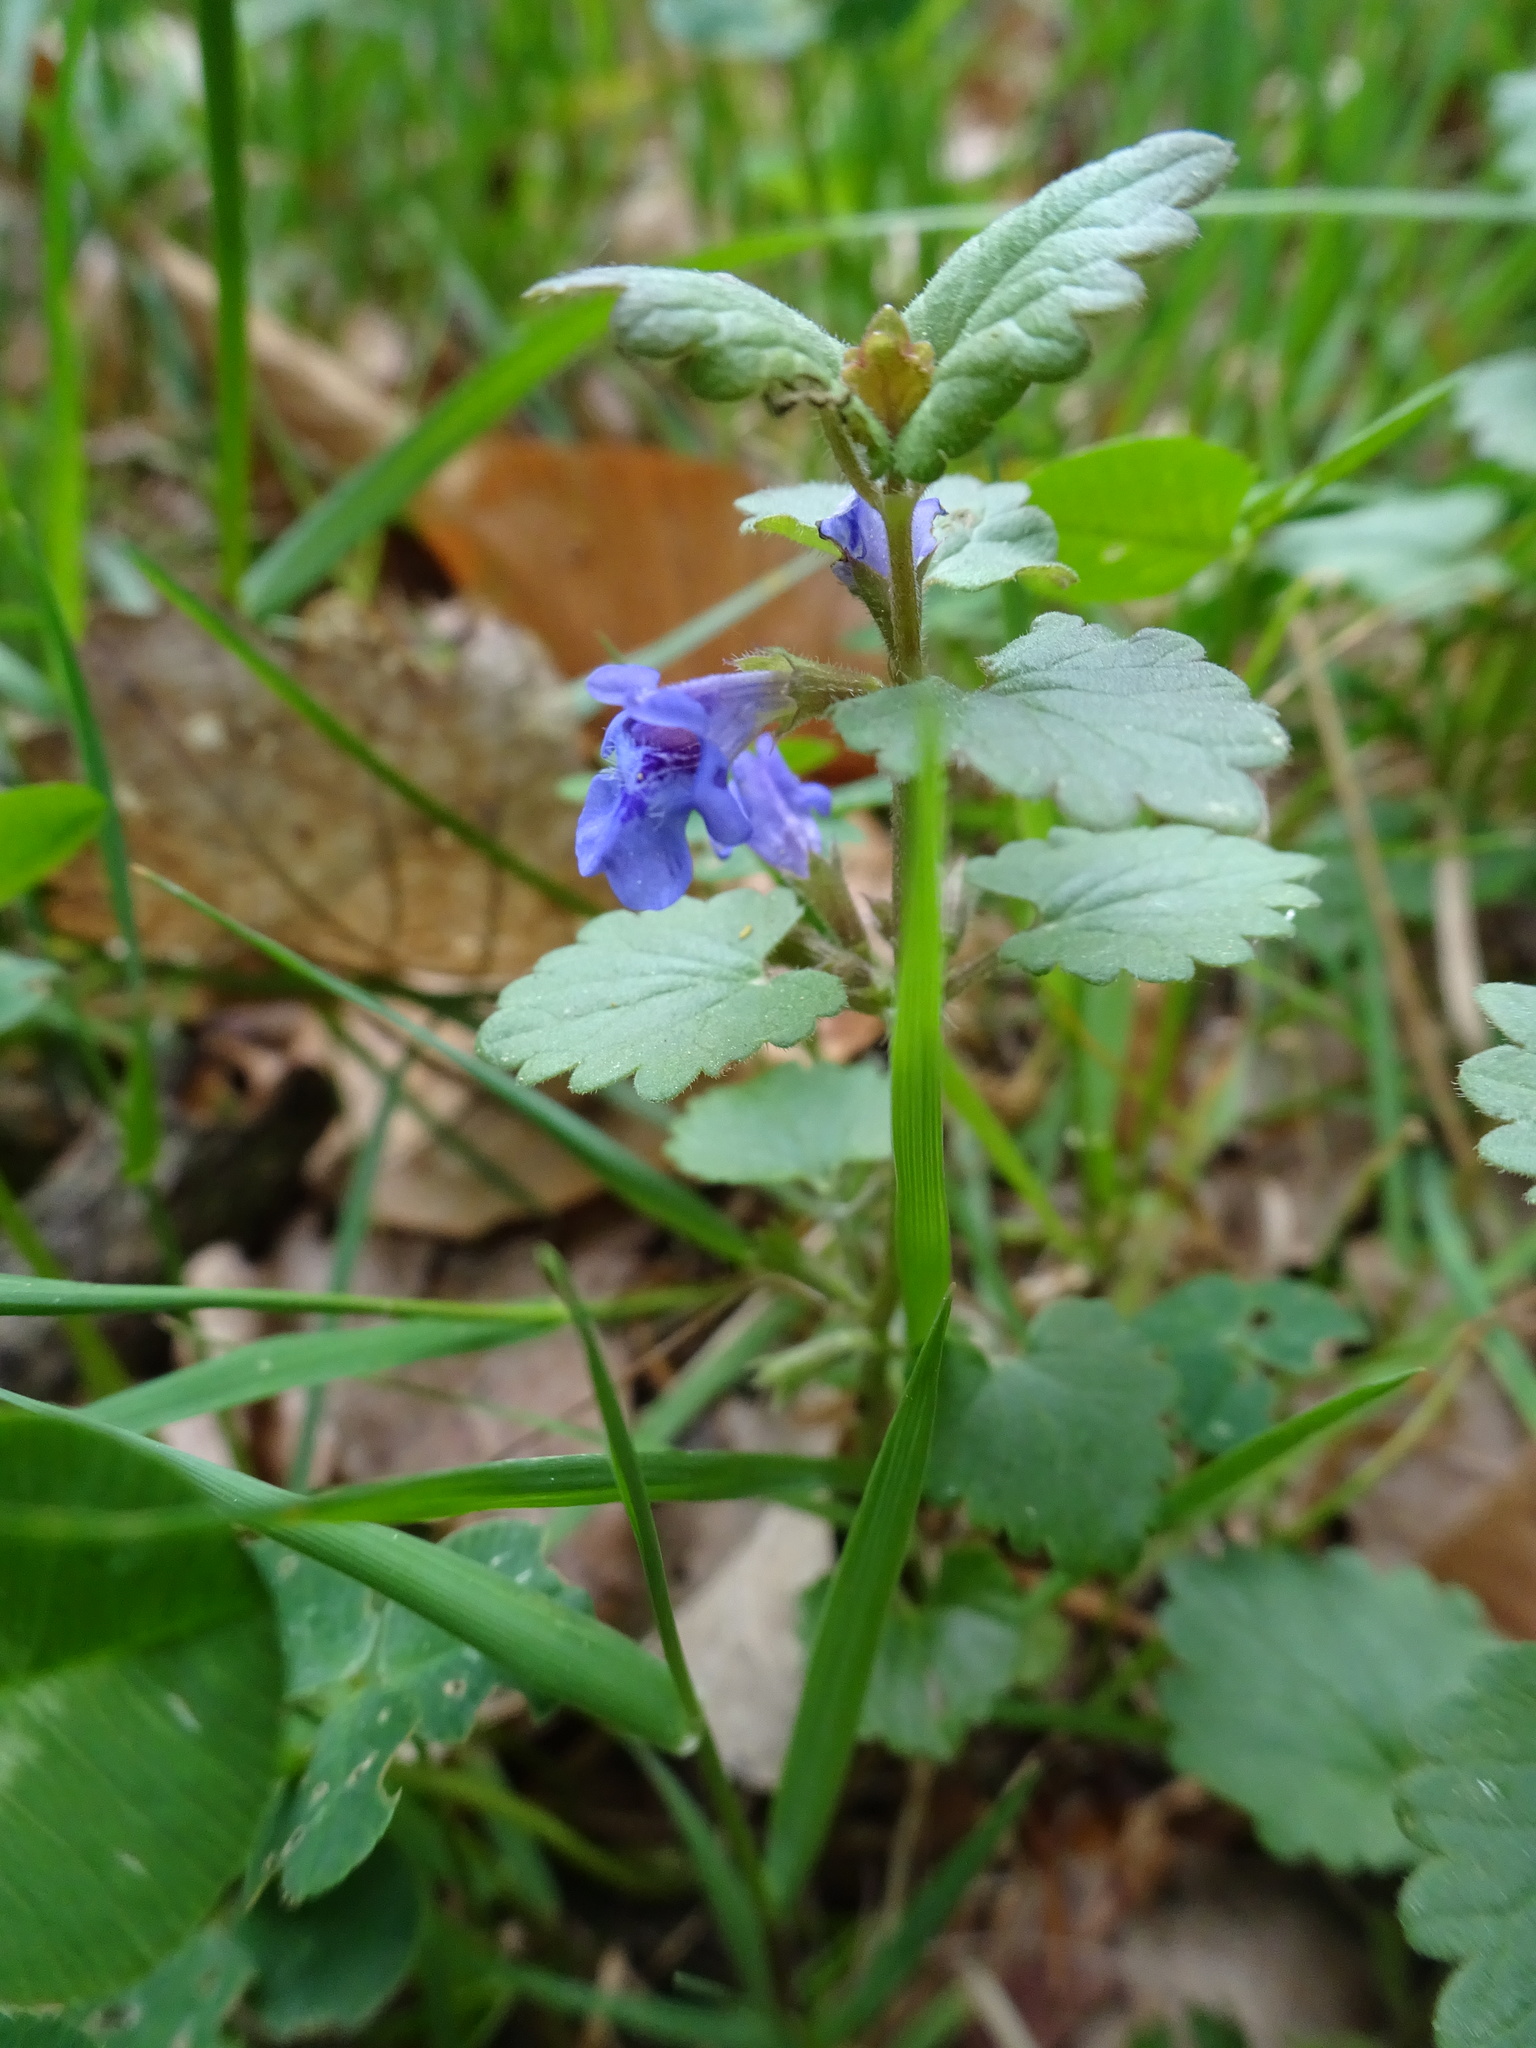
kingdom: Plantae
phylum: Tracheophyta
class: Magnoliopsida
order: Lamiales
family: Lamiaceae
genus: Glechoma
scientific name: Glechoma hederacea
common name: Ground ivy
